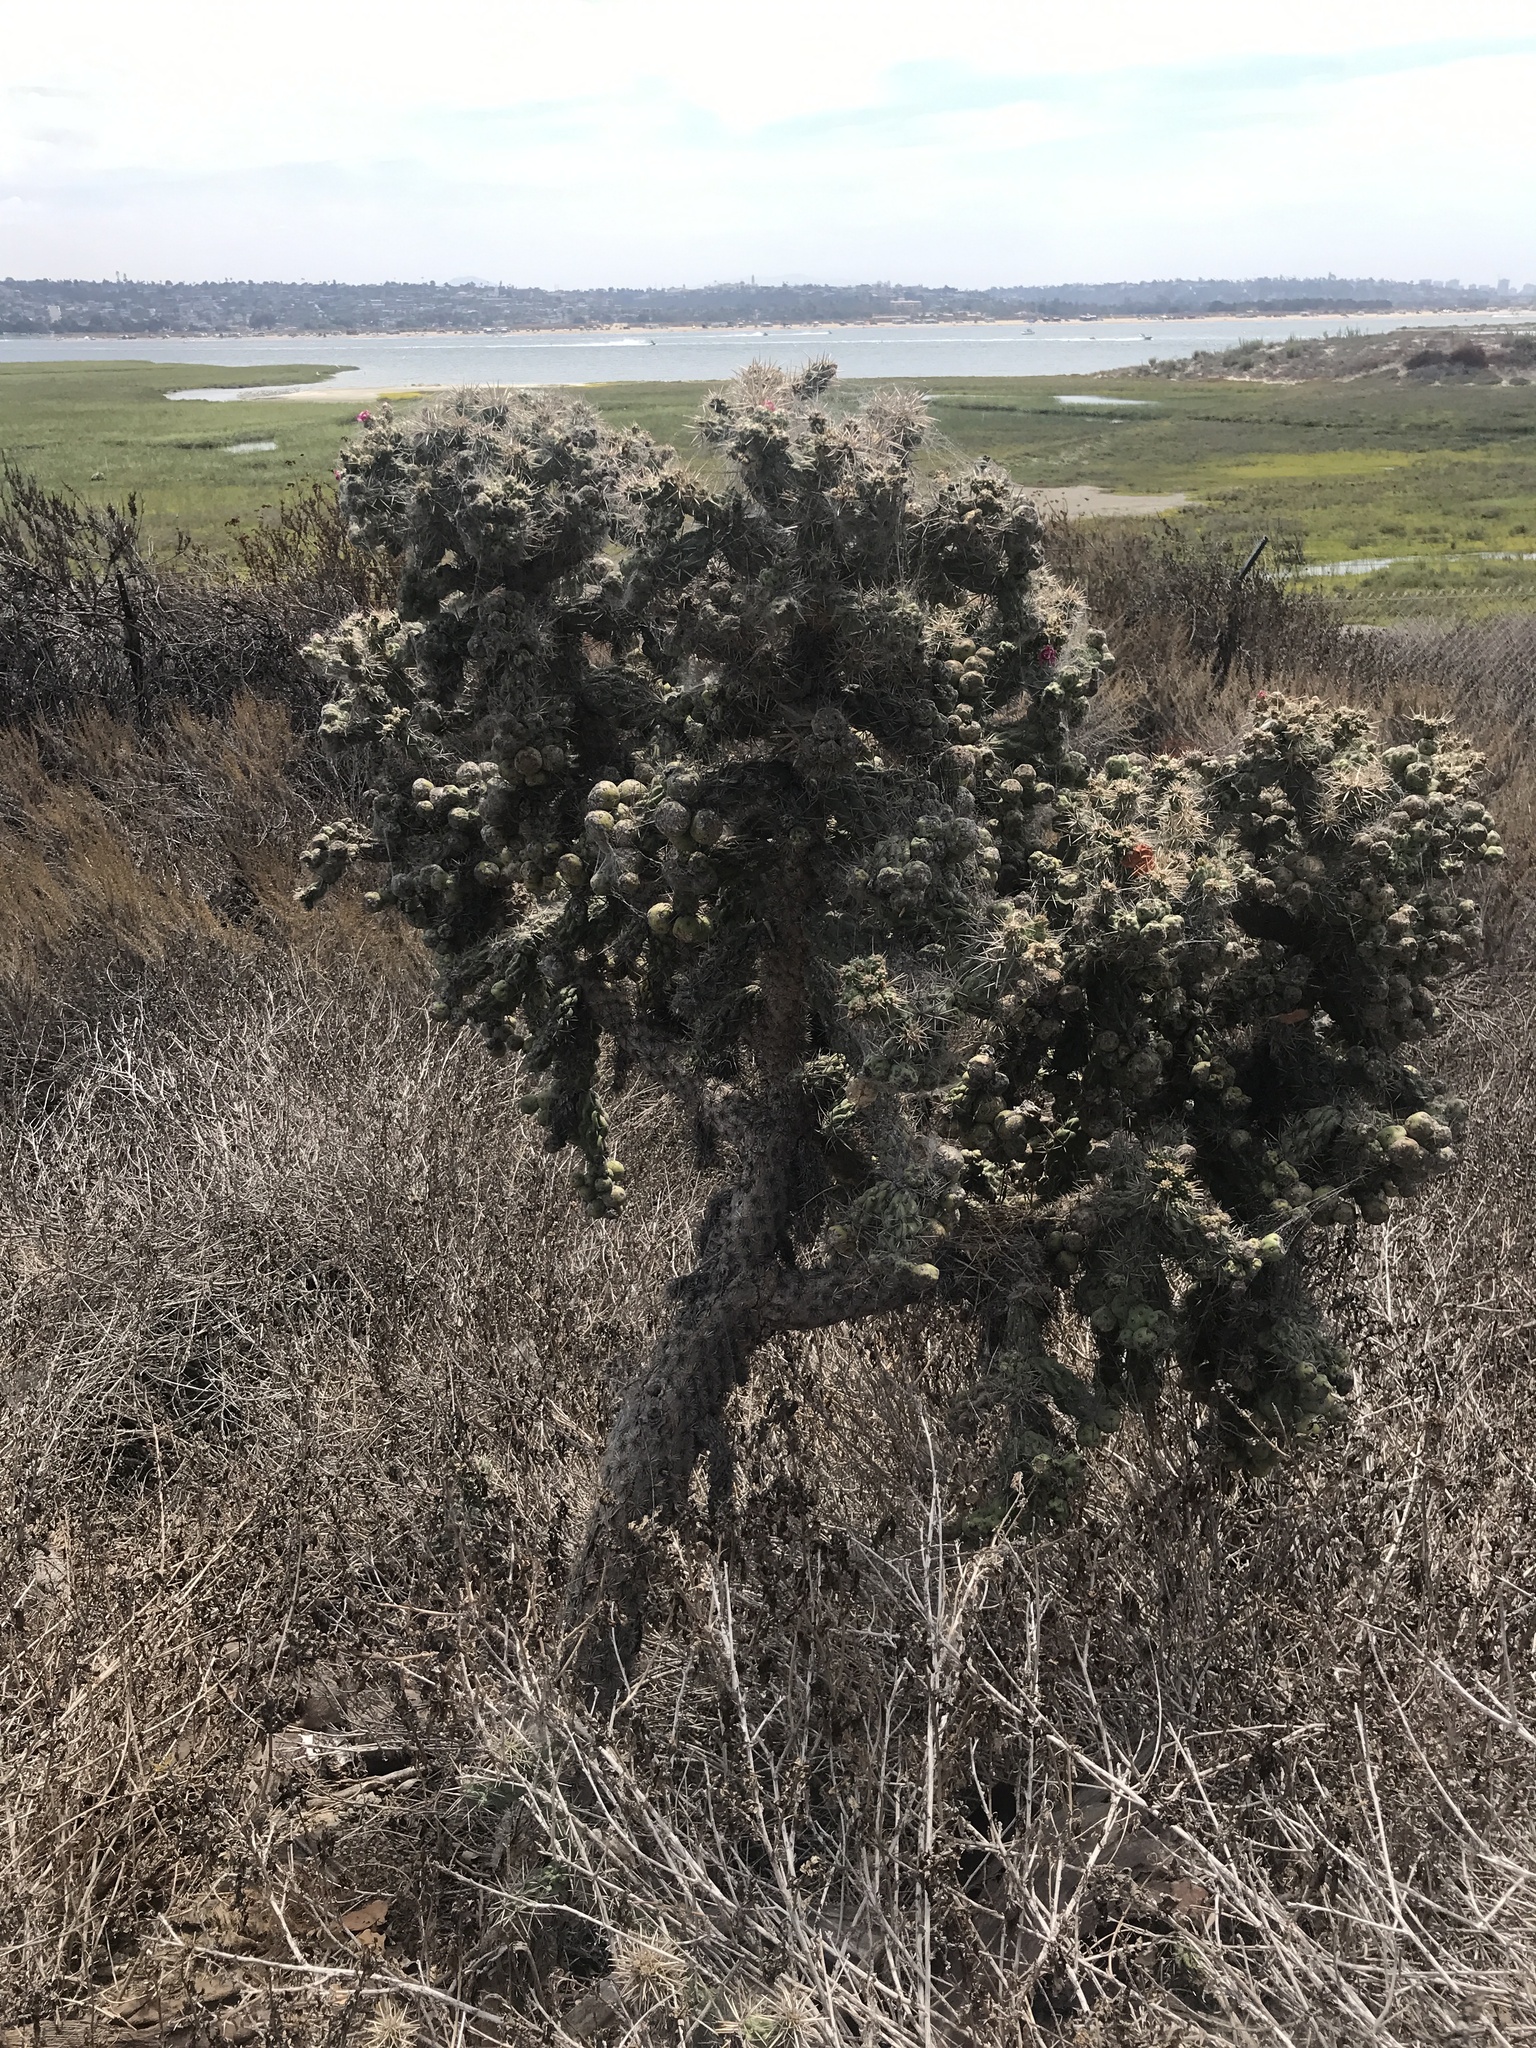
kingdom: Plantae
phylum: Tracheophyta
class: Magnoliopsida
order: Caryophyllales
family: Cactaceae
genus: Cylindropuntia
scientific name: Cylindropuntia cholla
